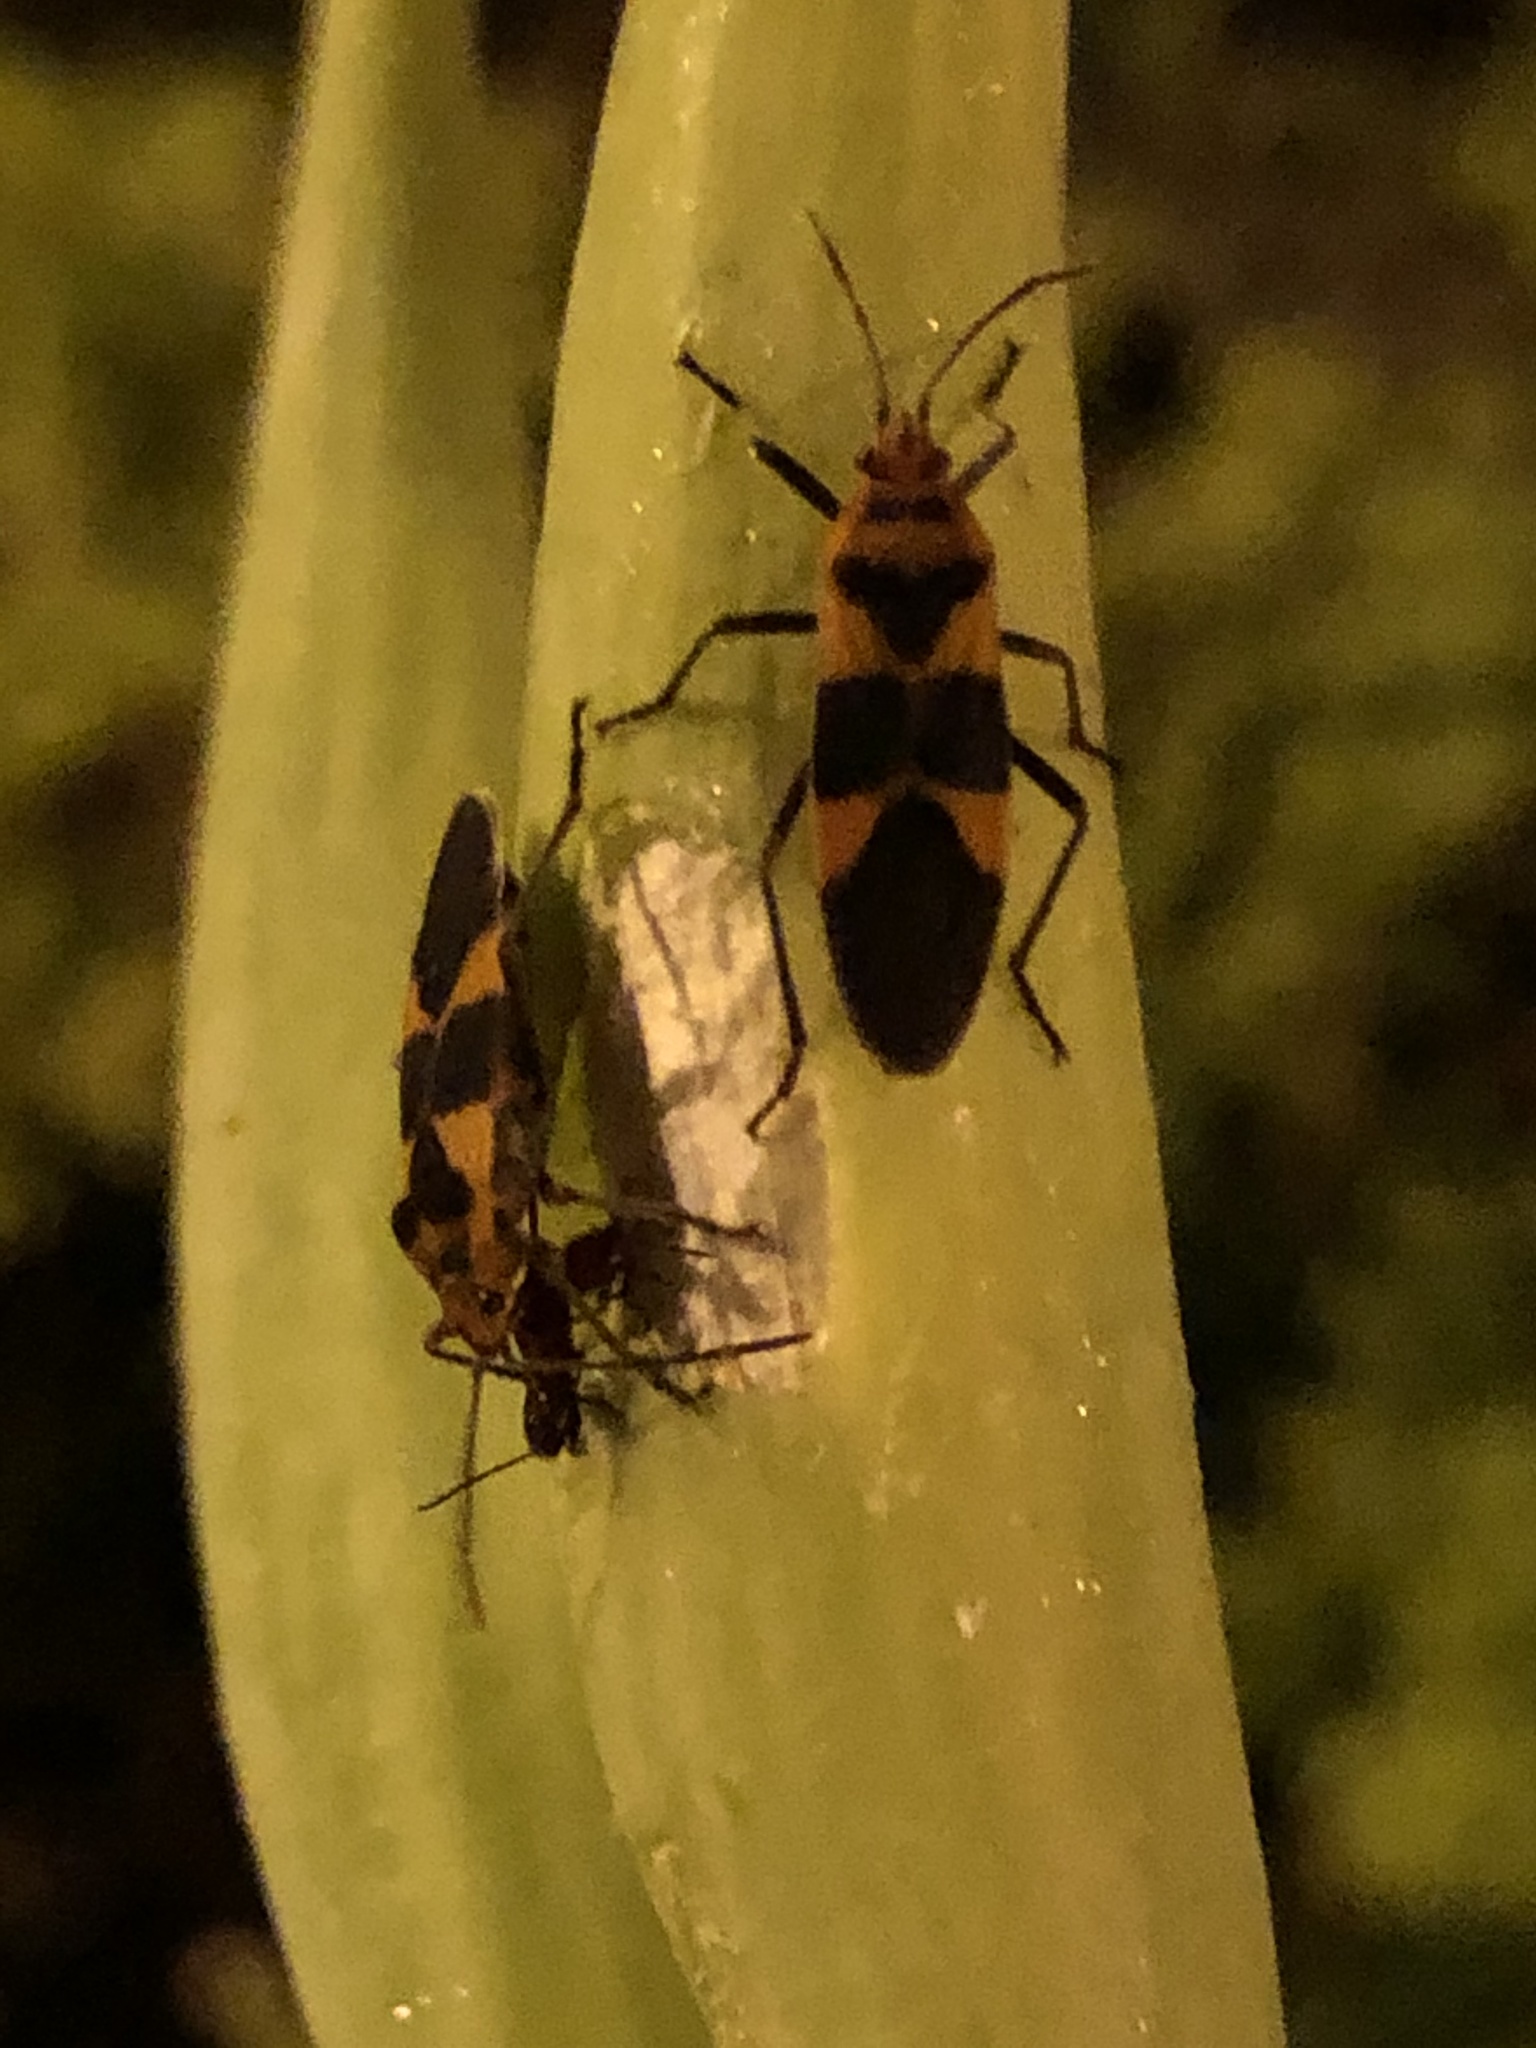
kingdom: Animalia
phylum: Arthropoda
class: Insecta
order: Hemiptera
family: Lygaeidae
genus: Oncopeltus
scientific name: Oncopeltus zonatus
